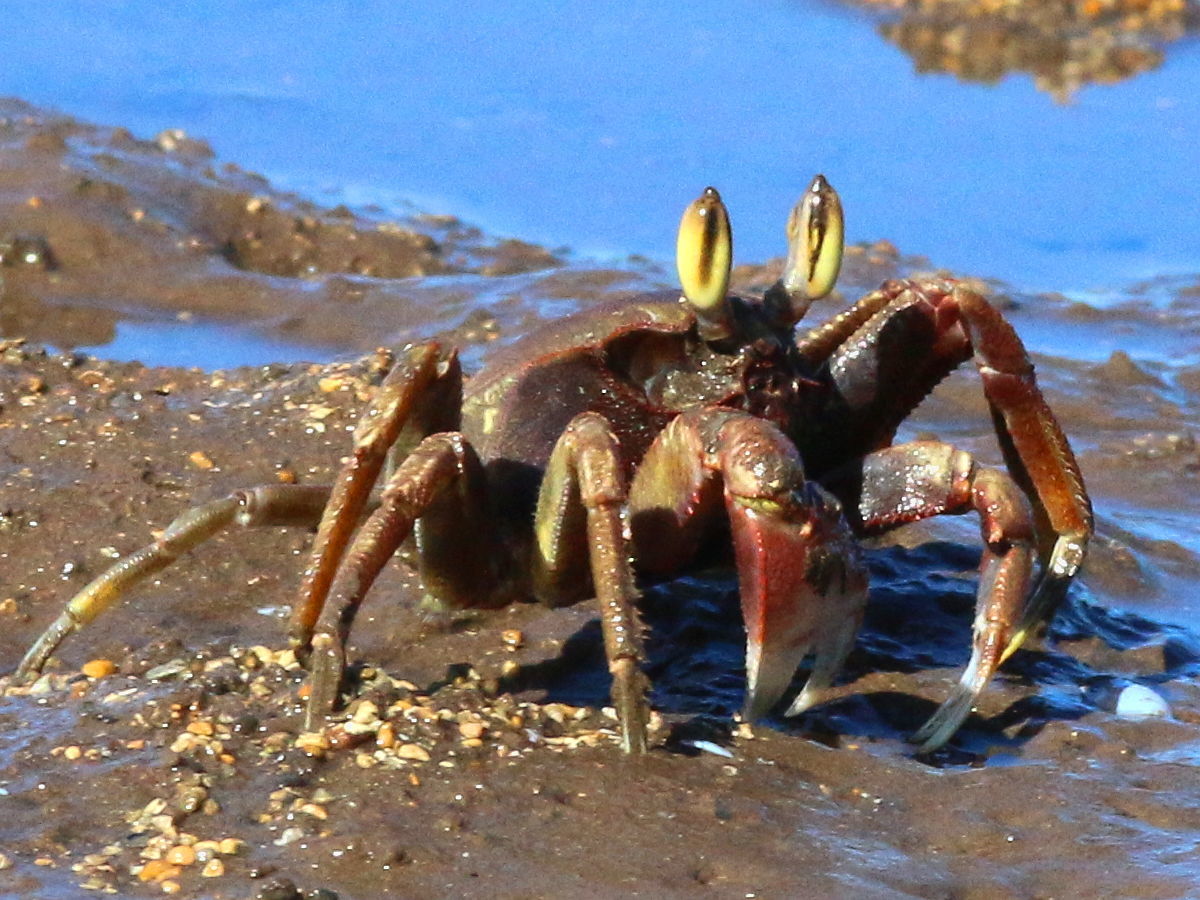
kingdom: Animalia
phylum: Arthropoda
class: Malacostraca
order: Decapoda
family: Ocypodidae
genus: Ocypode
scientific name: Ocypode ceratophthalmus
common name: Indo-pacific ghost crab
